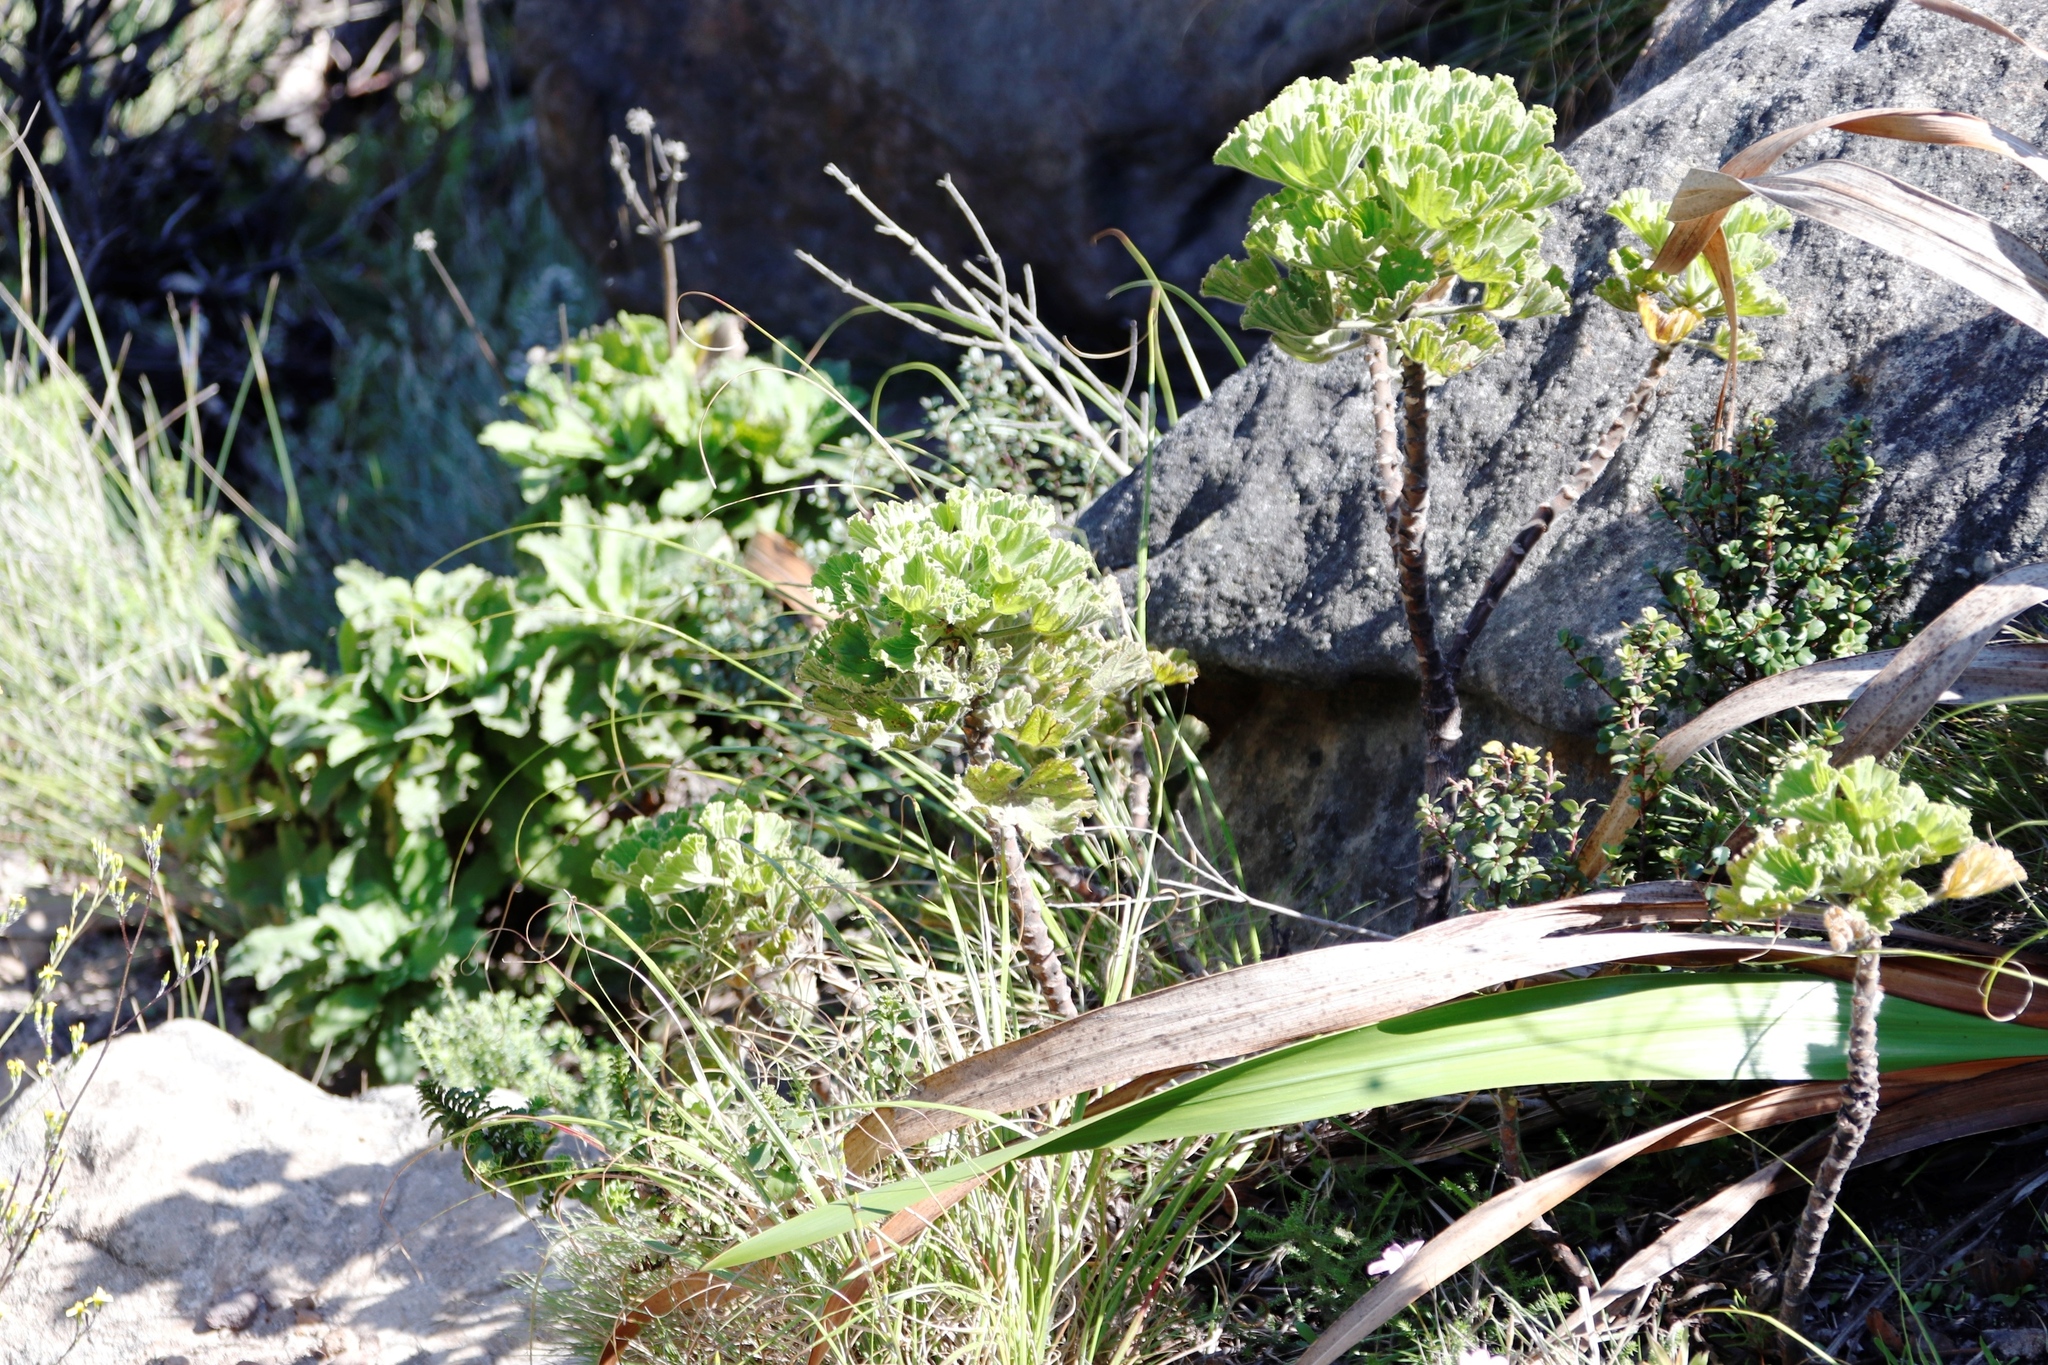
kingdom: Plantae
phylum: Tracheophyta
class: Magnoliopsida
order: Geraniales
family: Geraniaceae
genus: Pelargonium
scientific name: Pelargonium cucullatum
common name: Tree pelargonium
